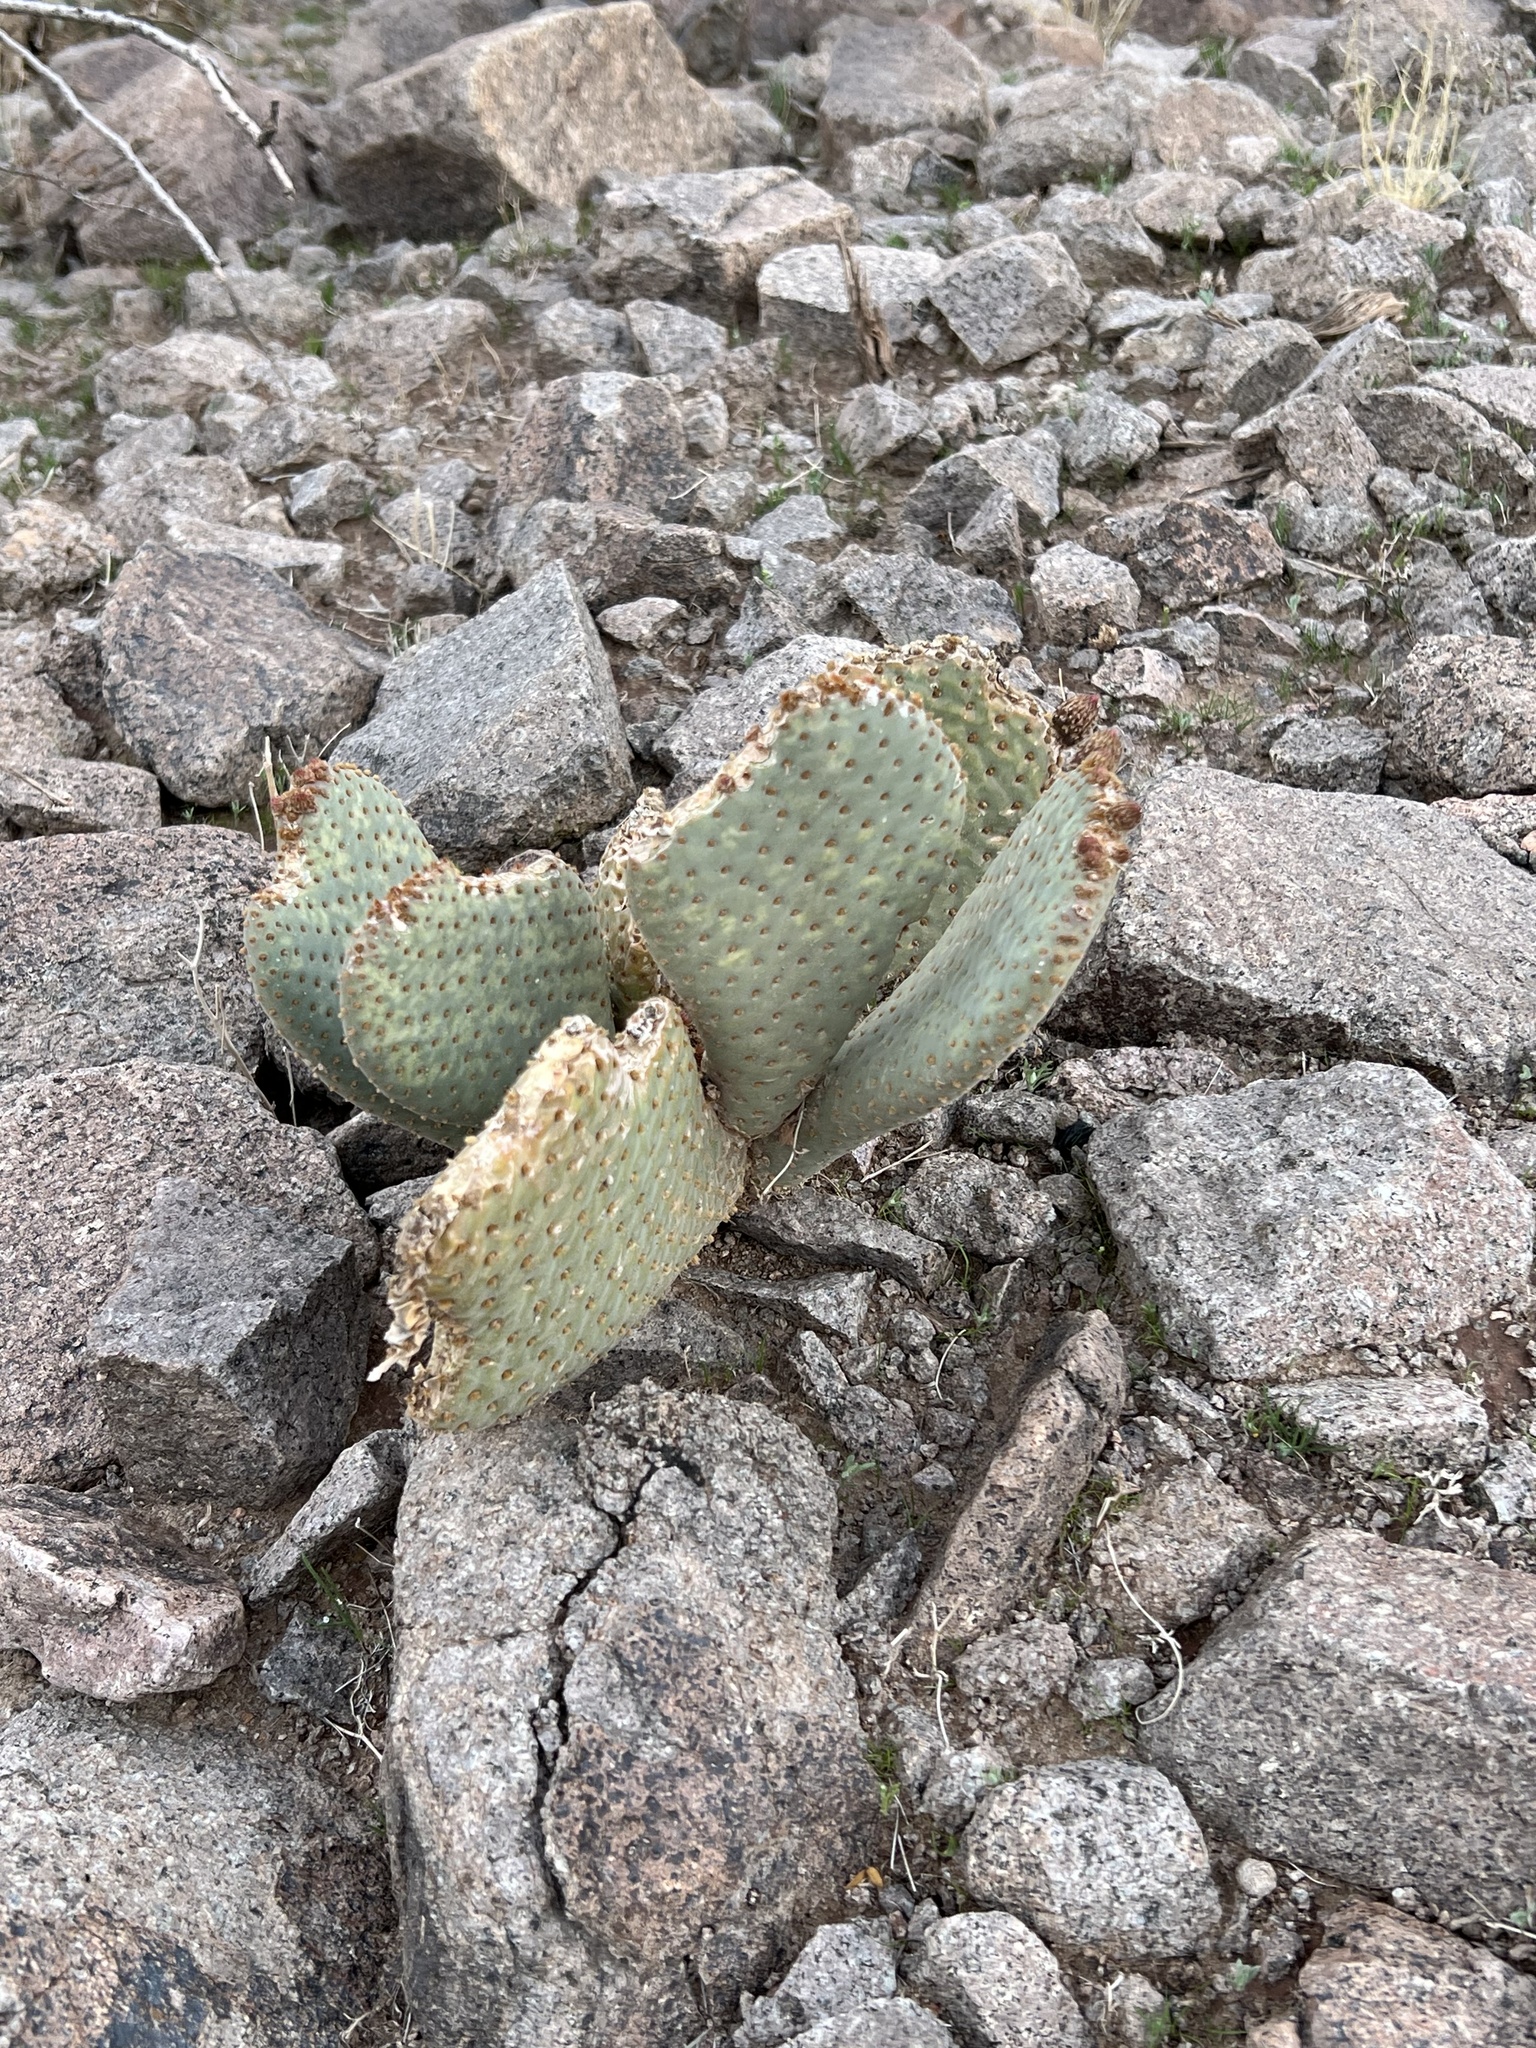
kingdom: Plantae
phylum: Tracheophyta
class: Magnoliopsida
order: Caryophyllales
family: Cactaceae
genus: Opuntia
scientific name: Opuntia basilaris
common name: Beavertail prickly-pear
